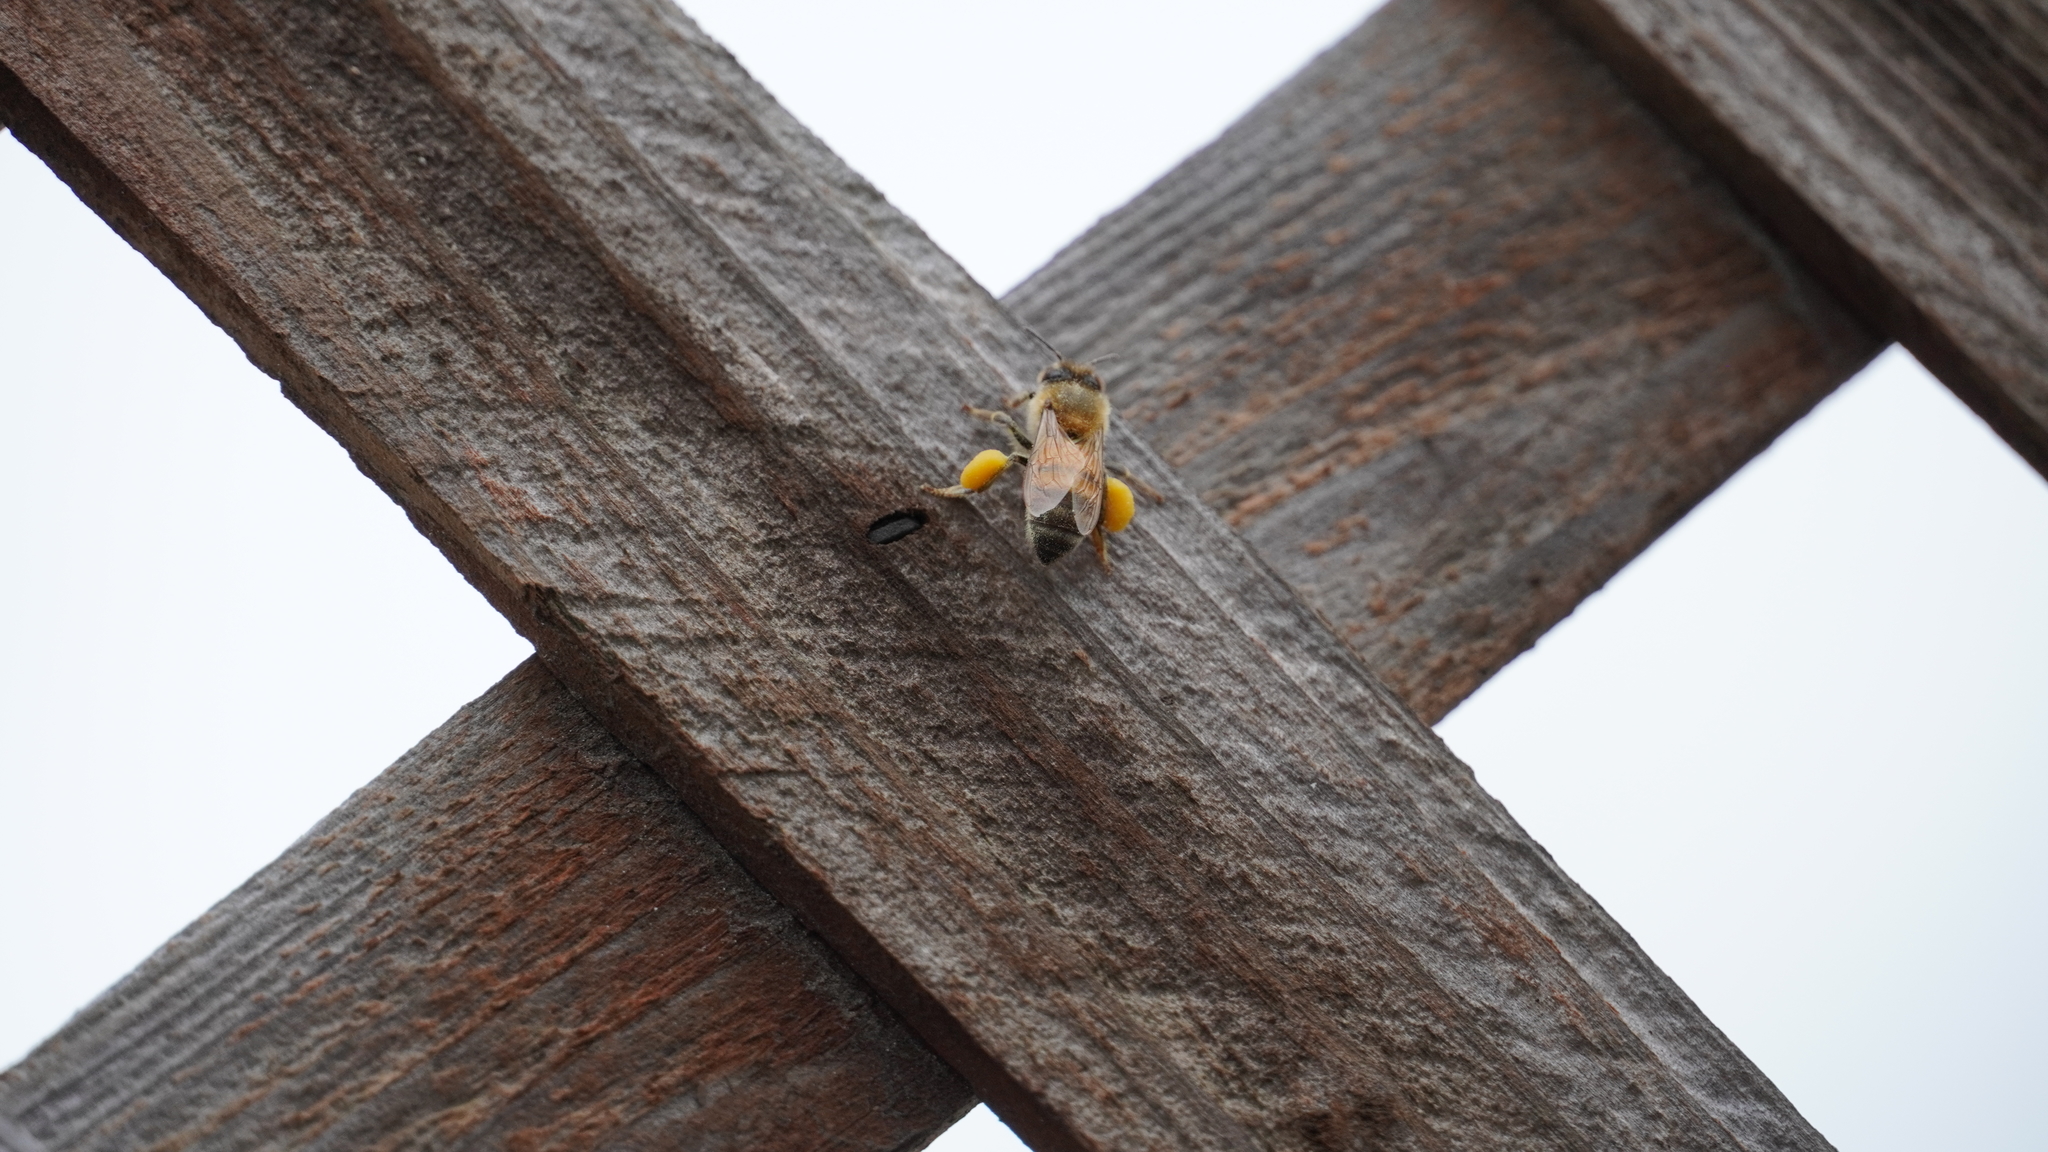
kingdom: Animalia
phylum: Arthropoda
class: Insecta
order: Hymenoptera
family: Apidae
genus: Apis
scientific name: Apis mellifera
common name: Honey bee
